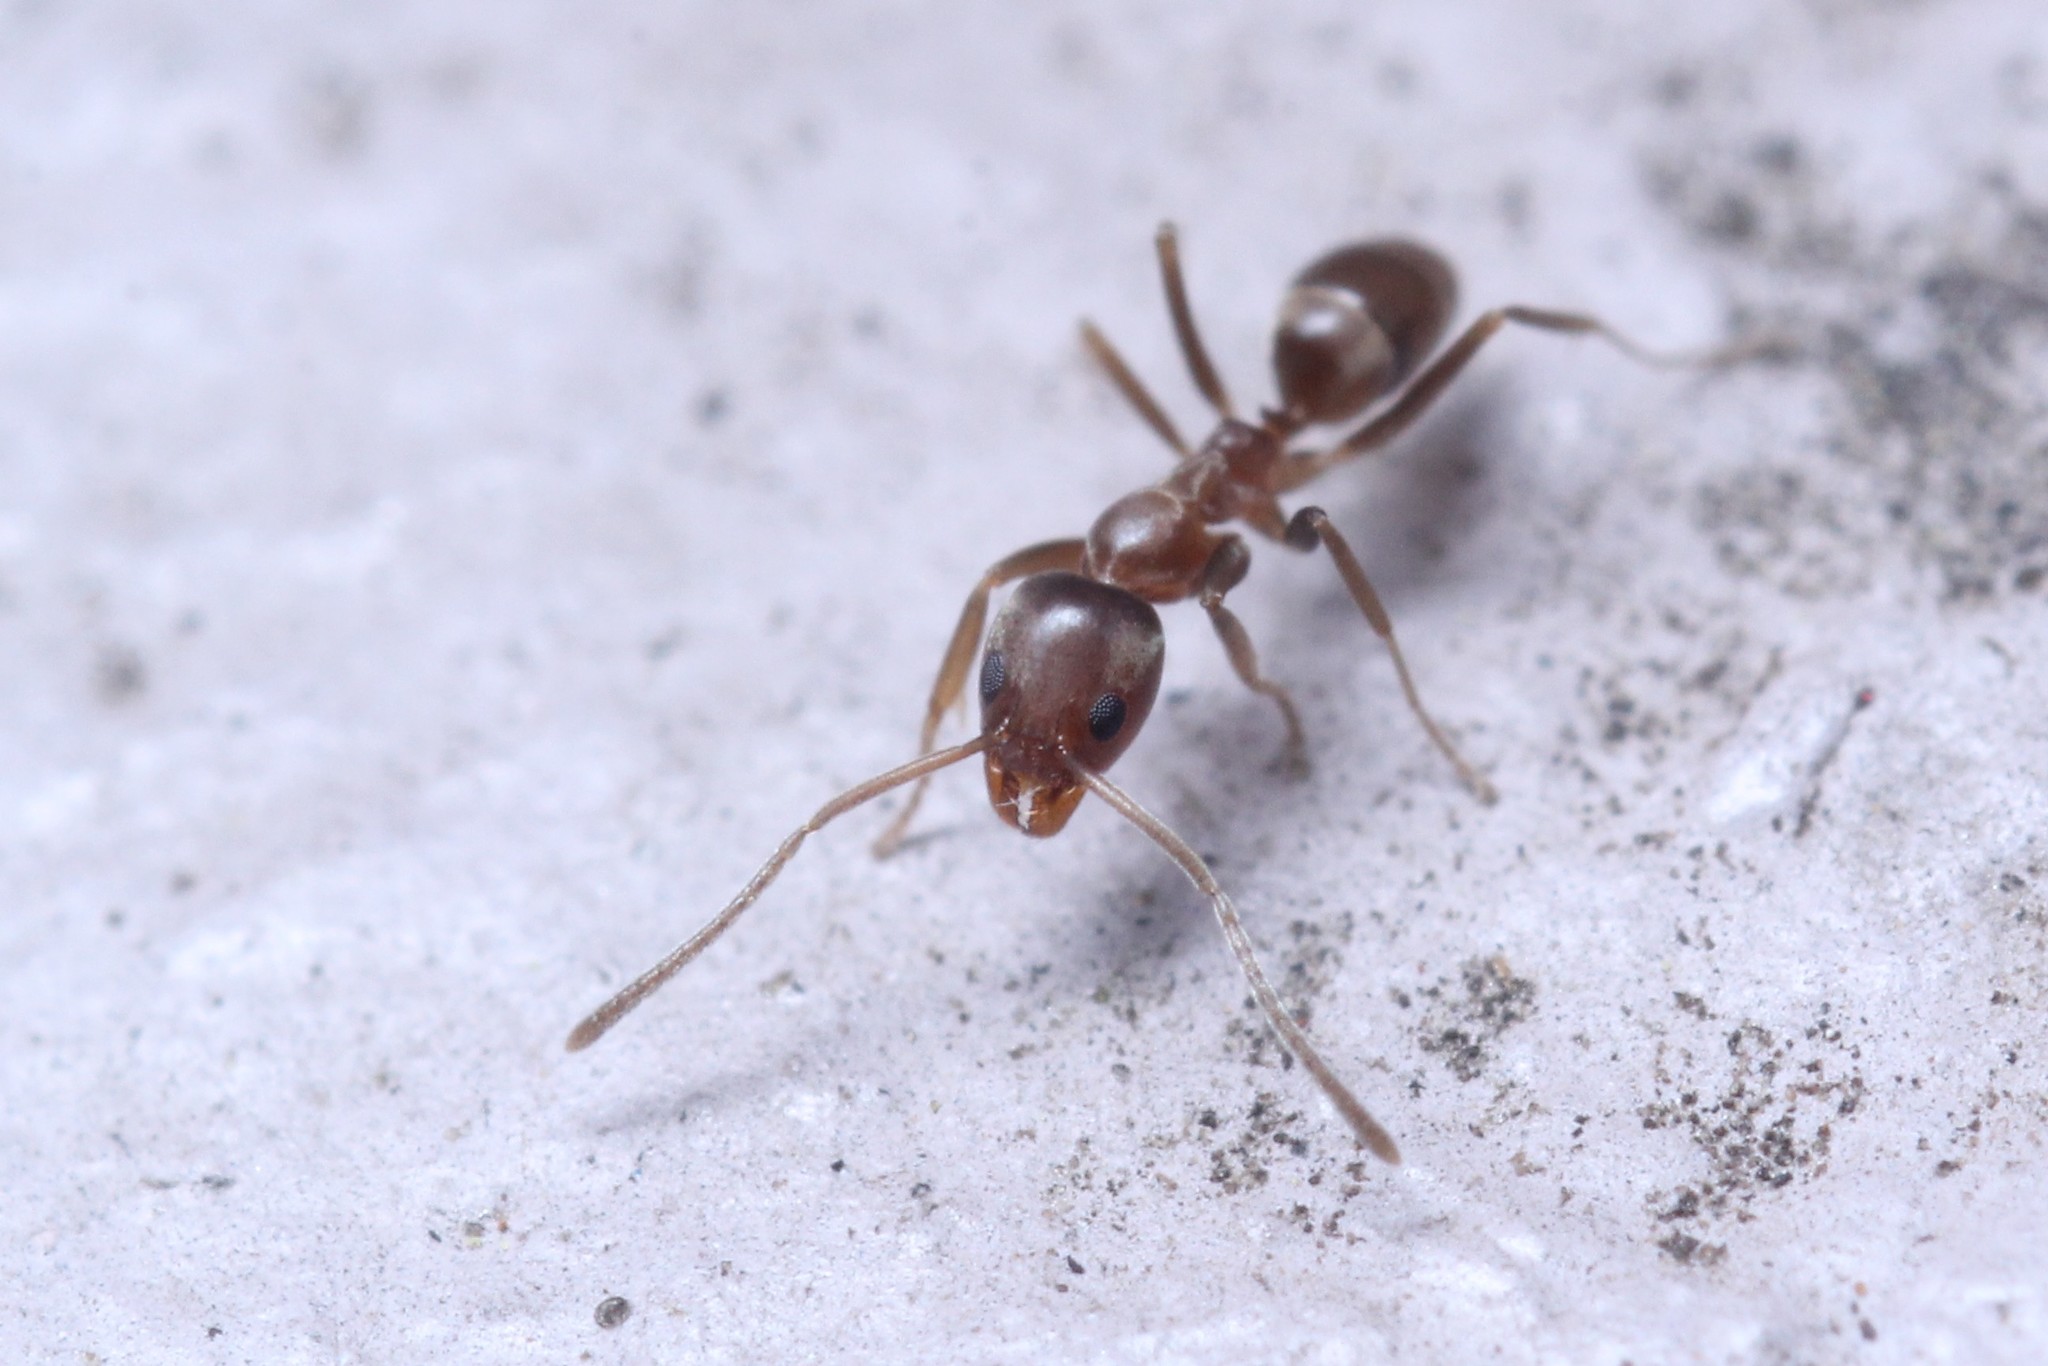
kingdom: Animalia
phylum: Arthropoda
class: Insecta
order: Hymenoptera
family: Formicidae
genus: Linepithema
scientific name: Linepithema humile
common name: Argentine ant
